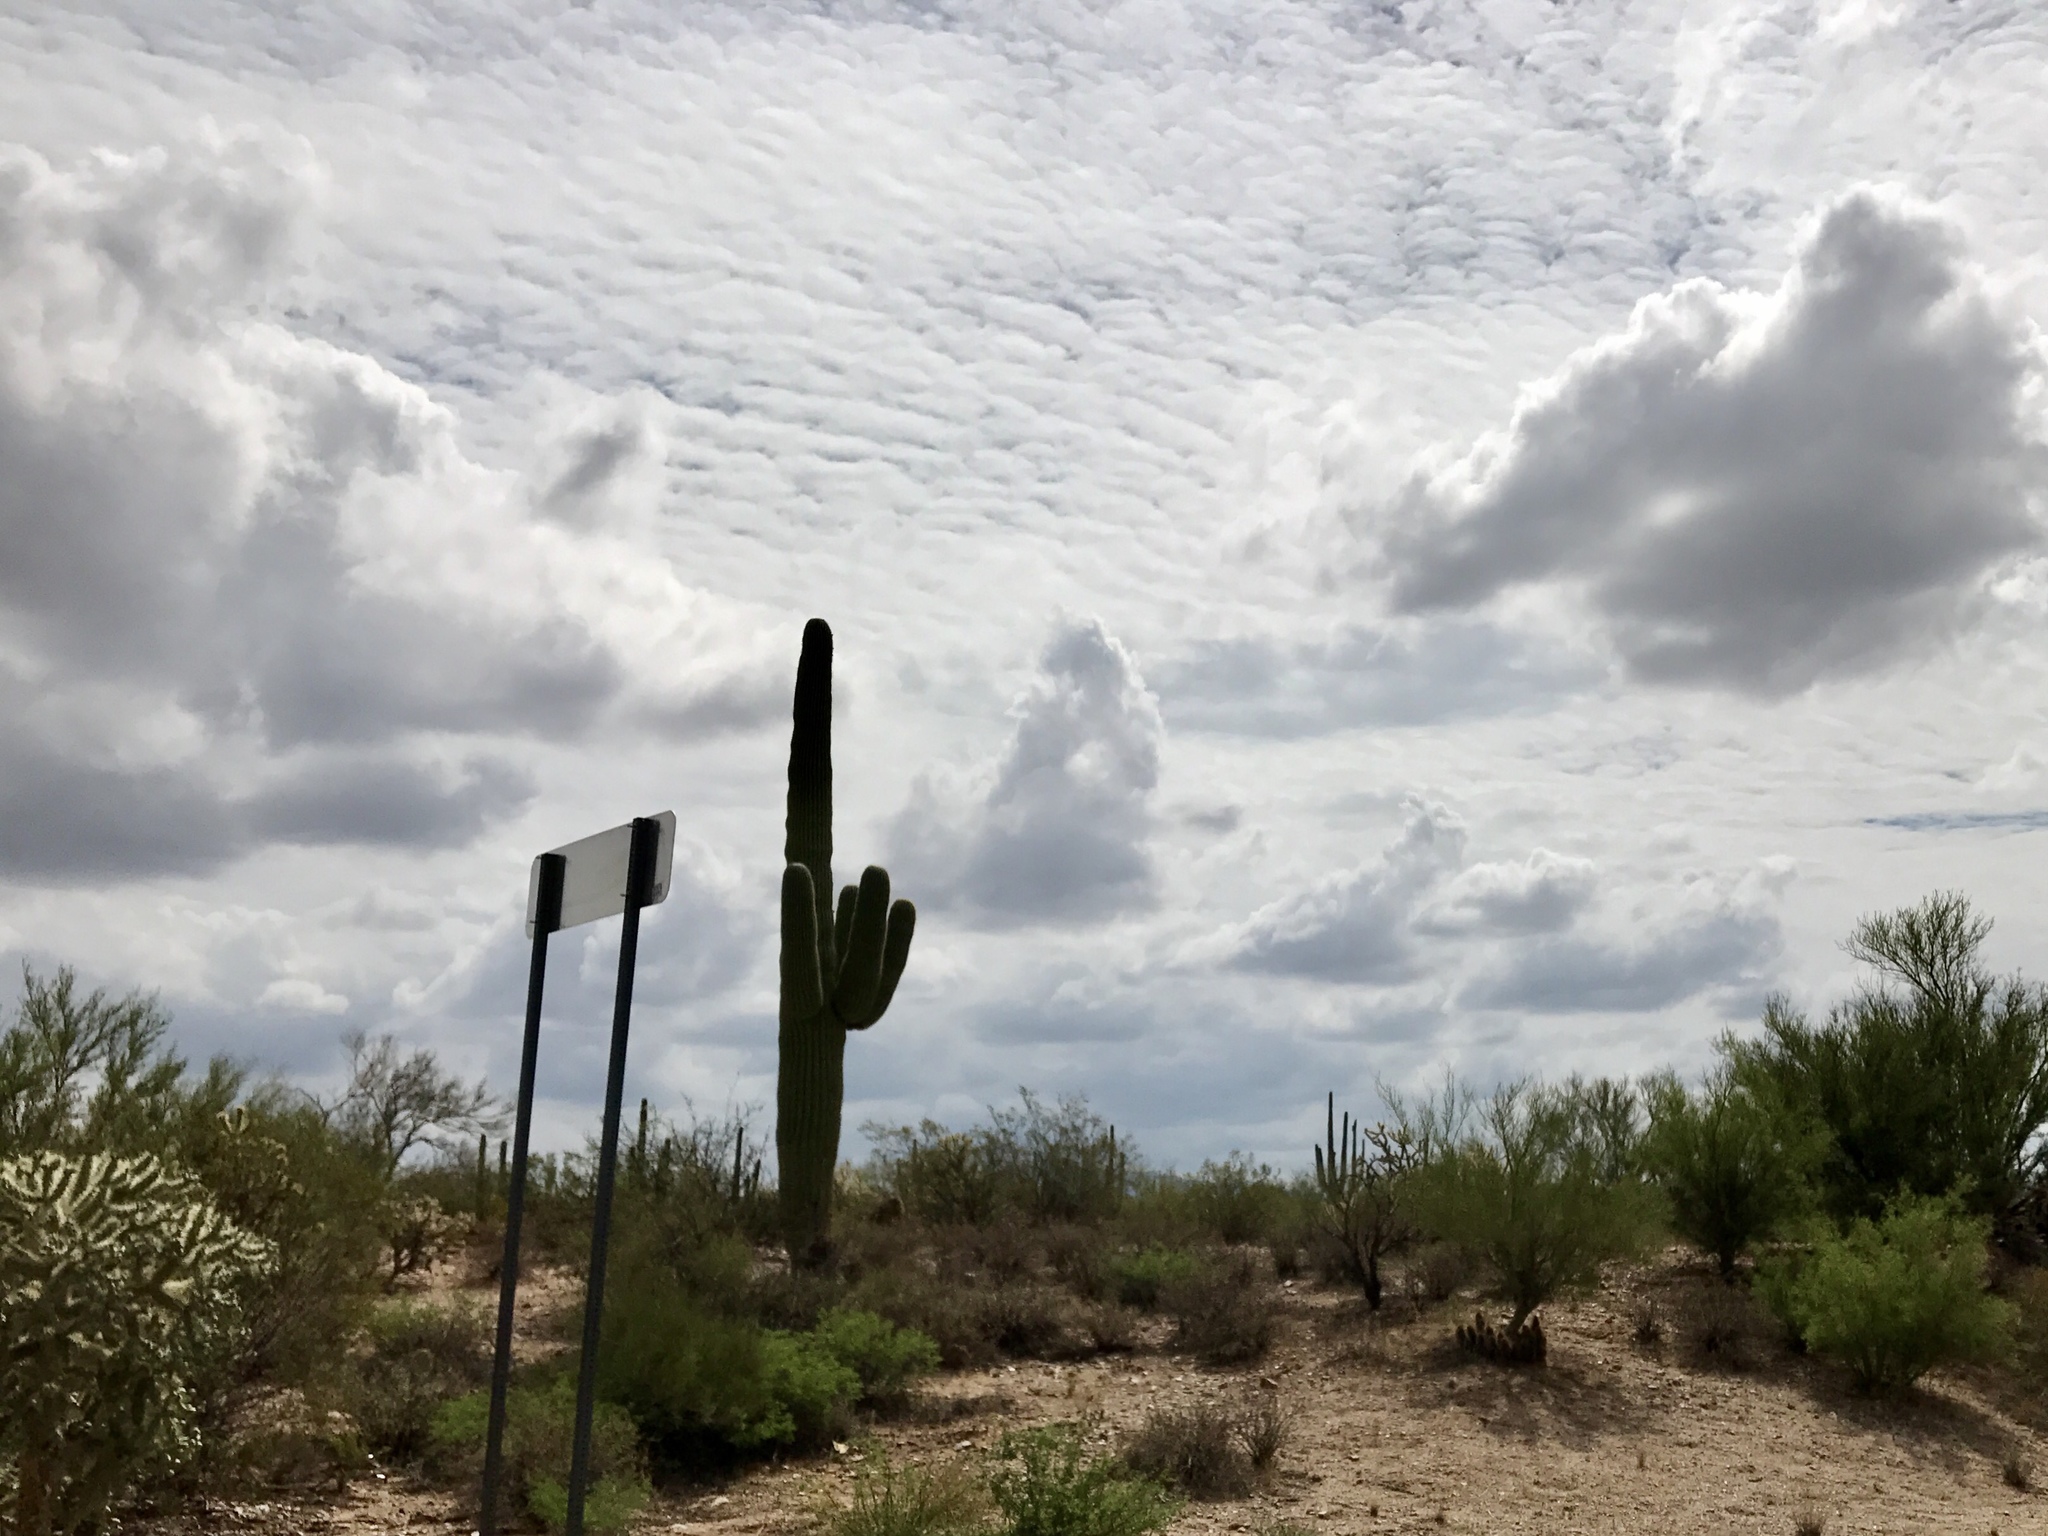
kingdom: Plantae
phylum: Tracheophyta
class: Magnoliopsida
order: Caryophyllales
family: Cactaceae
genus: Carnegiea
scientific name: Carnegiea gigantea
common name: Saguaro
